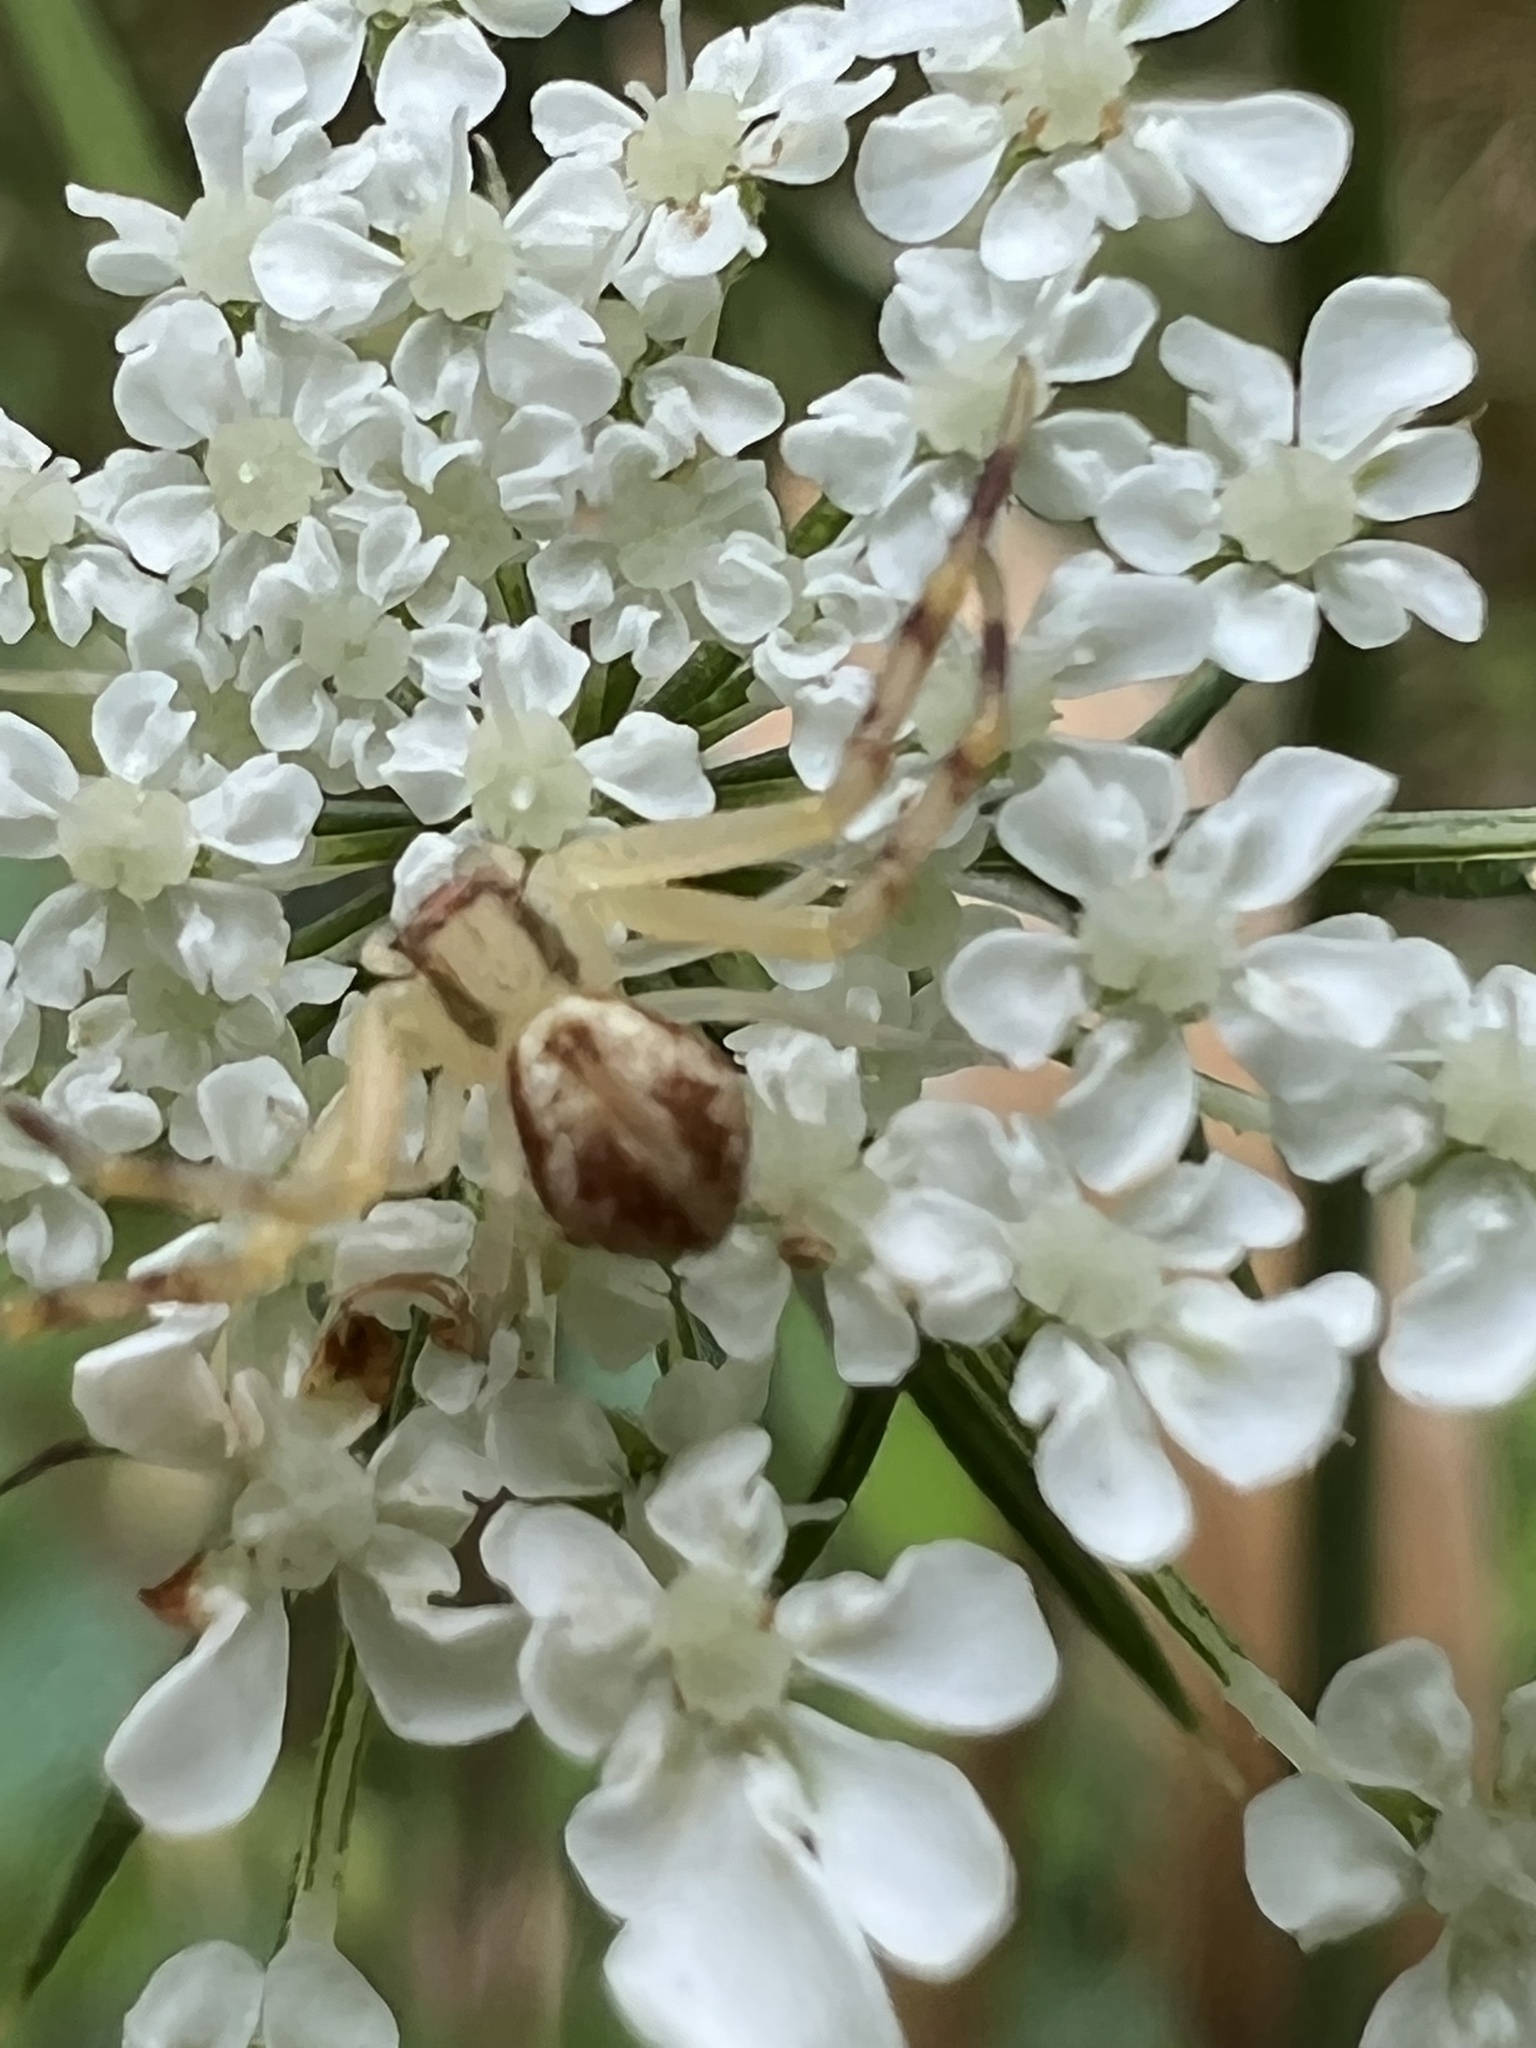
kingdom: Animalia
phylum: Arthropoda
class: Arachnida
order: Araneae
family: Thomisidae
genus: Mecaphesa
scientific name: Mecaphesa asperata
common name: Crab spiders
